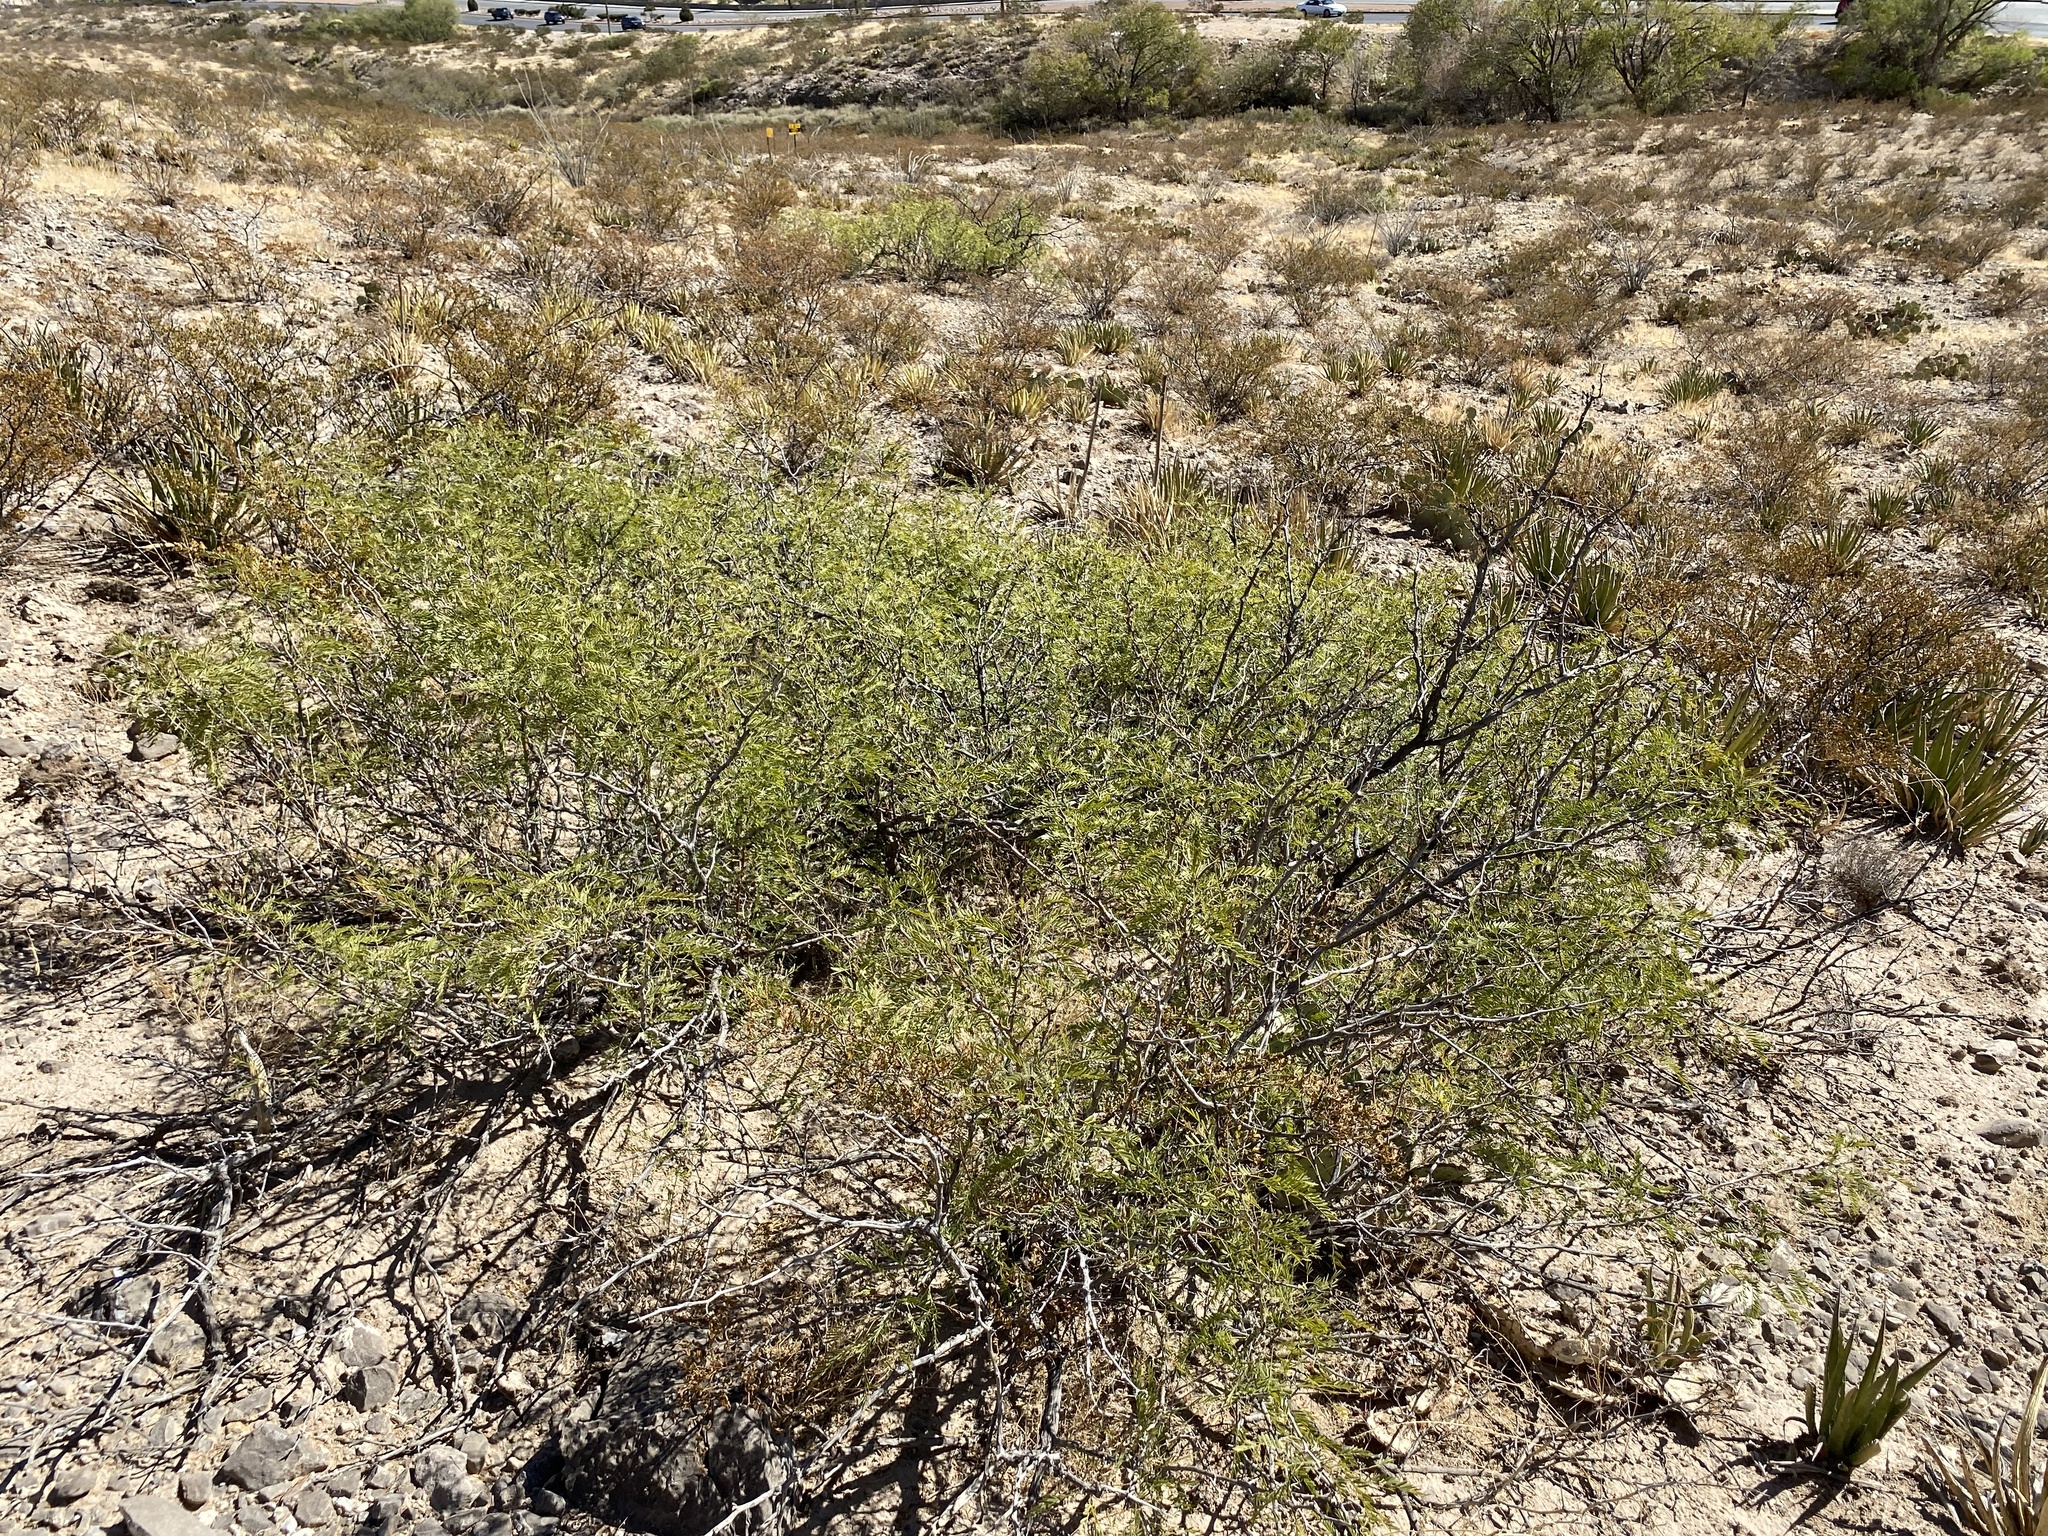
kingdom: Plantae
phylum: Tracheophyta
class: Magnoliopsida
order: Fabales
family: Fabaceae
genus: Prosopis
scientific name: Prosopis glandulosa
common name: Honey mesquite
